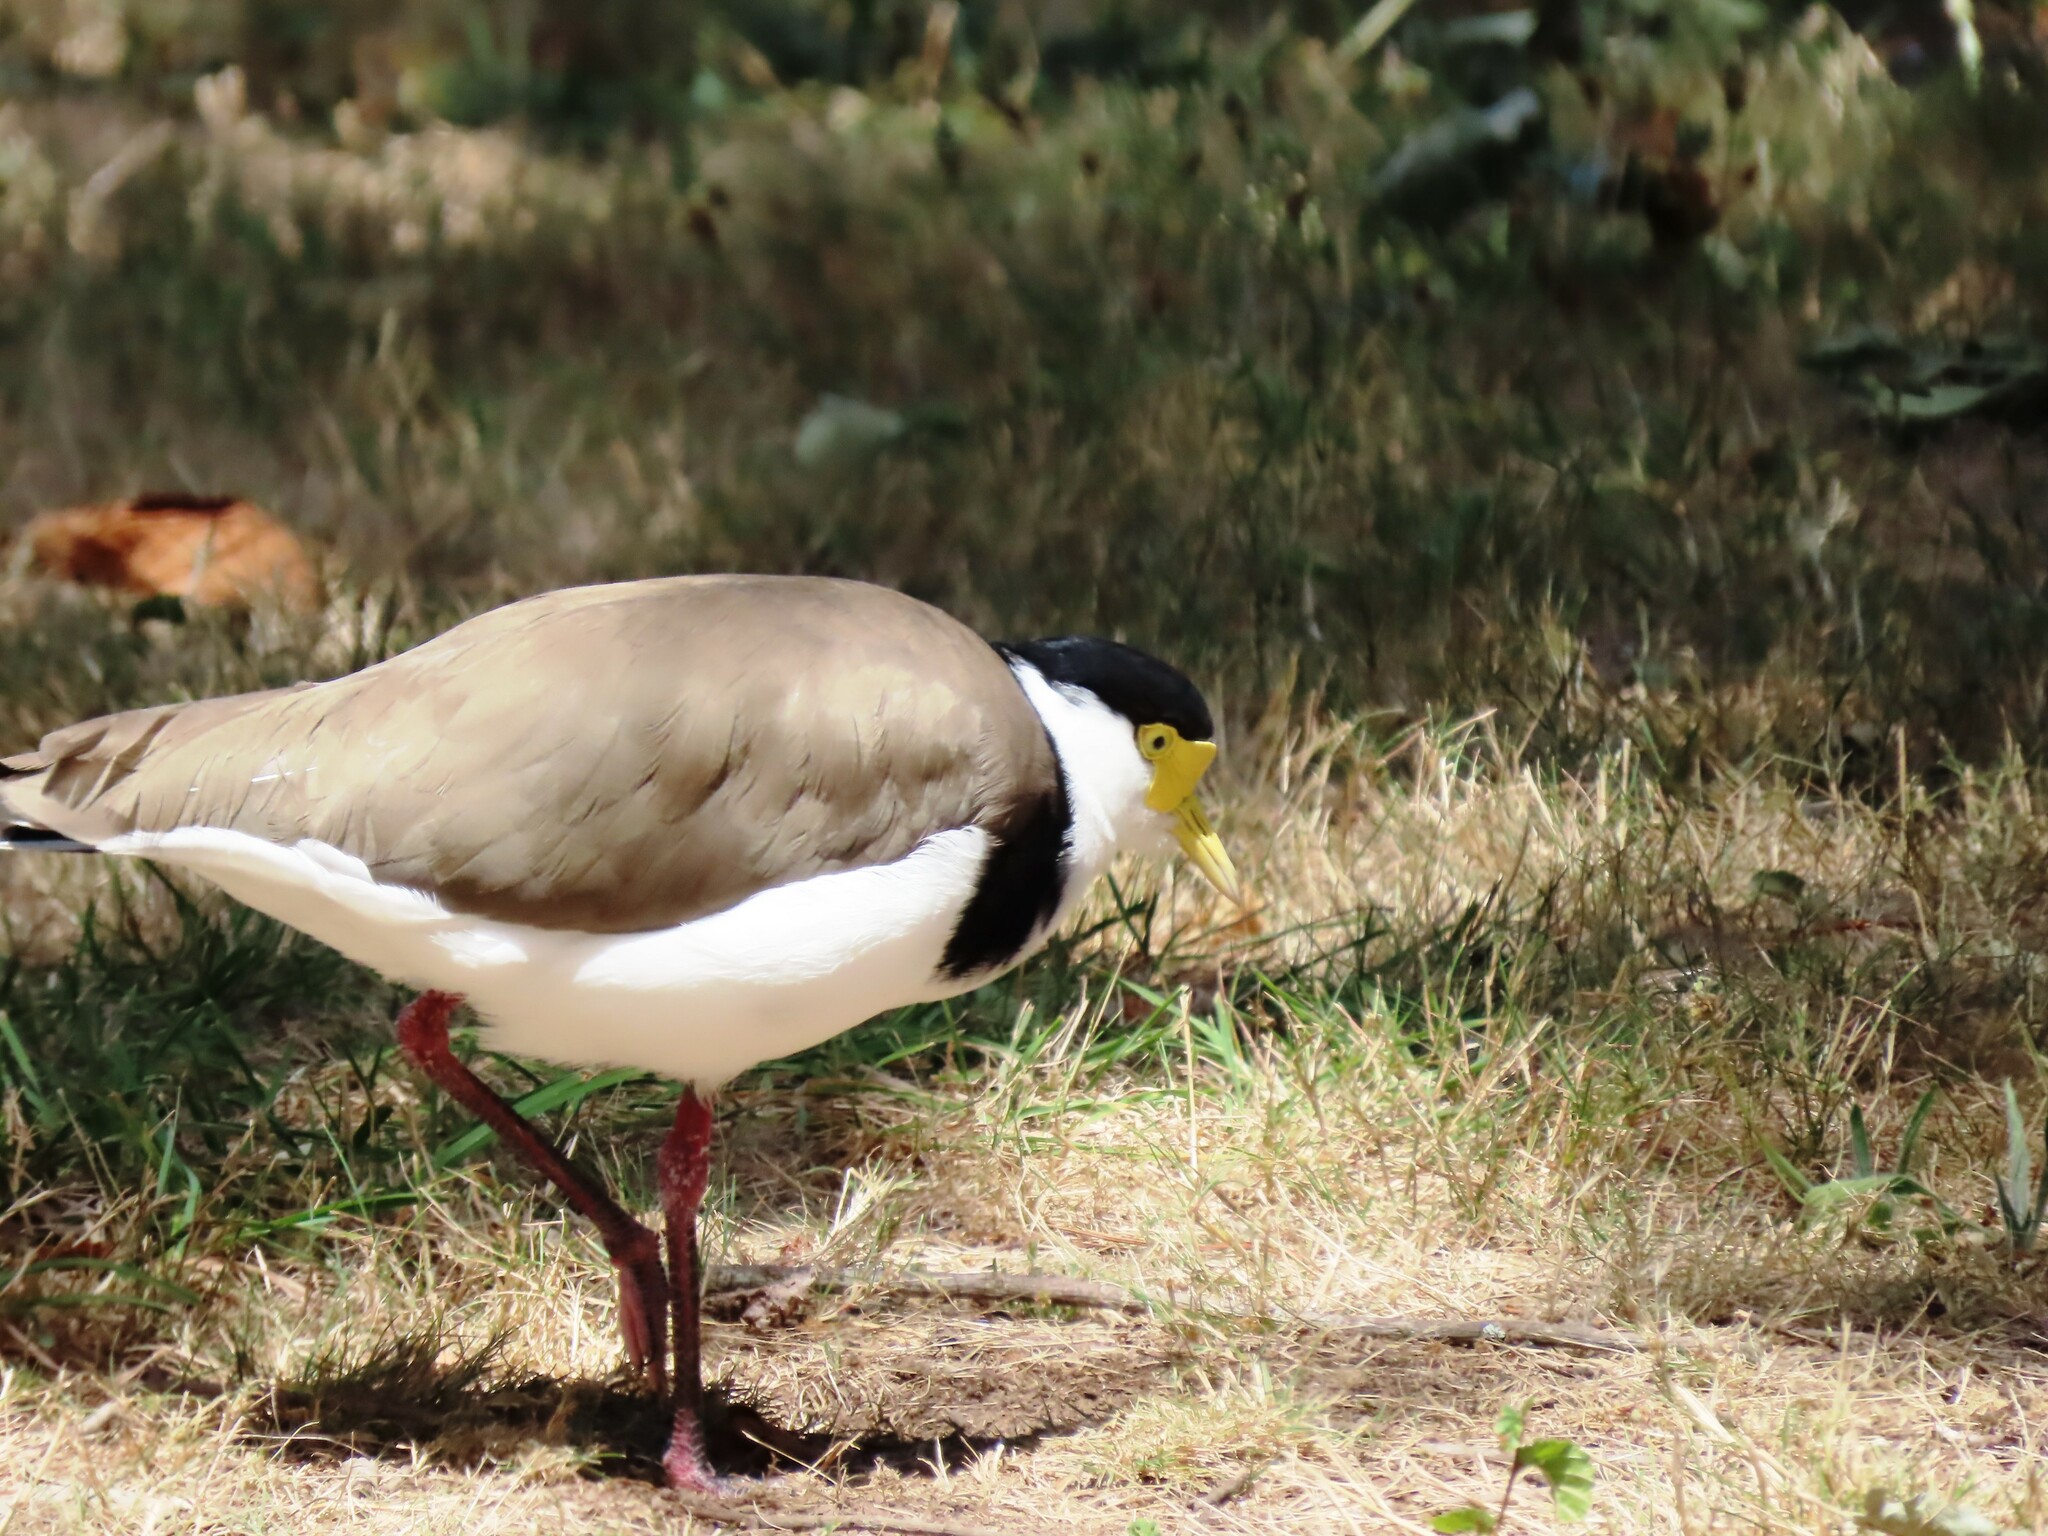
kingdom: Animalia
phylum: Chordata
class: Aves
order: Charadriiformes
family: Charadriidae
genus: Vanellus
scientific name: Vanellus miles
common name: Masked lapwing
